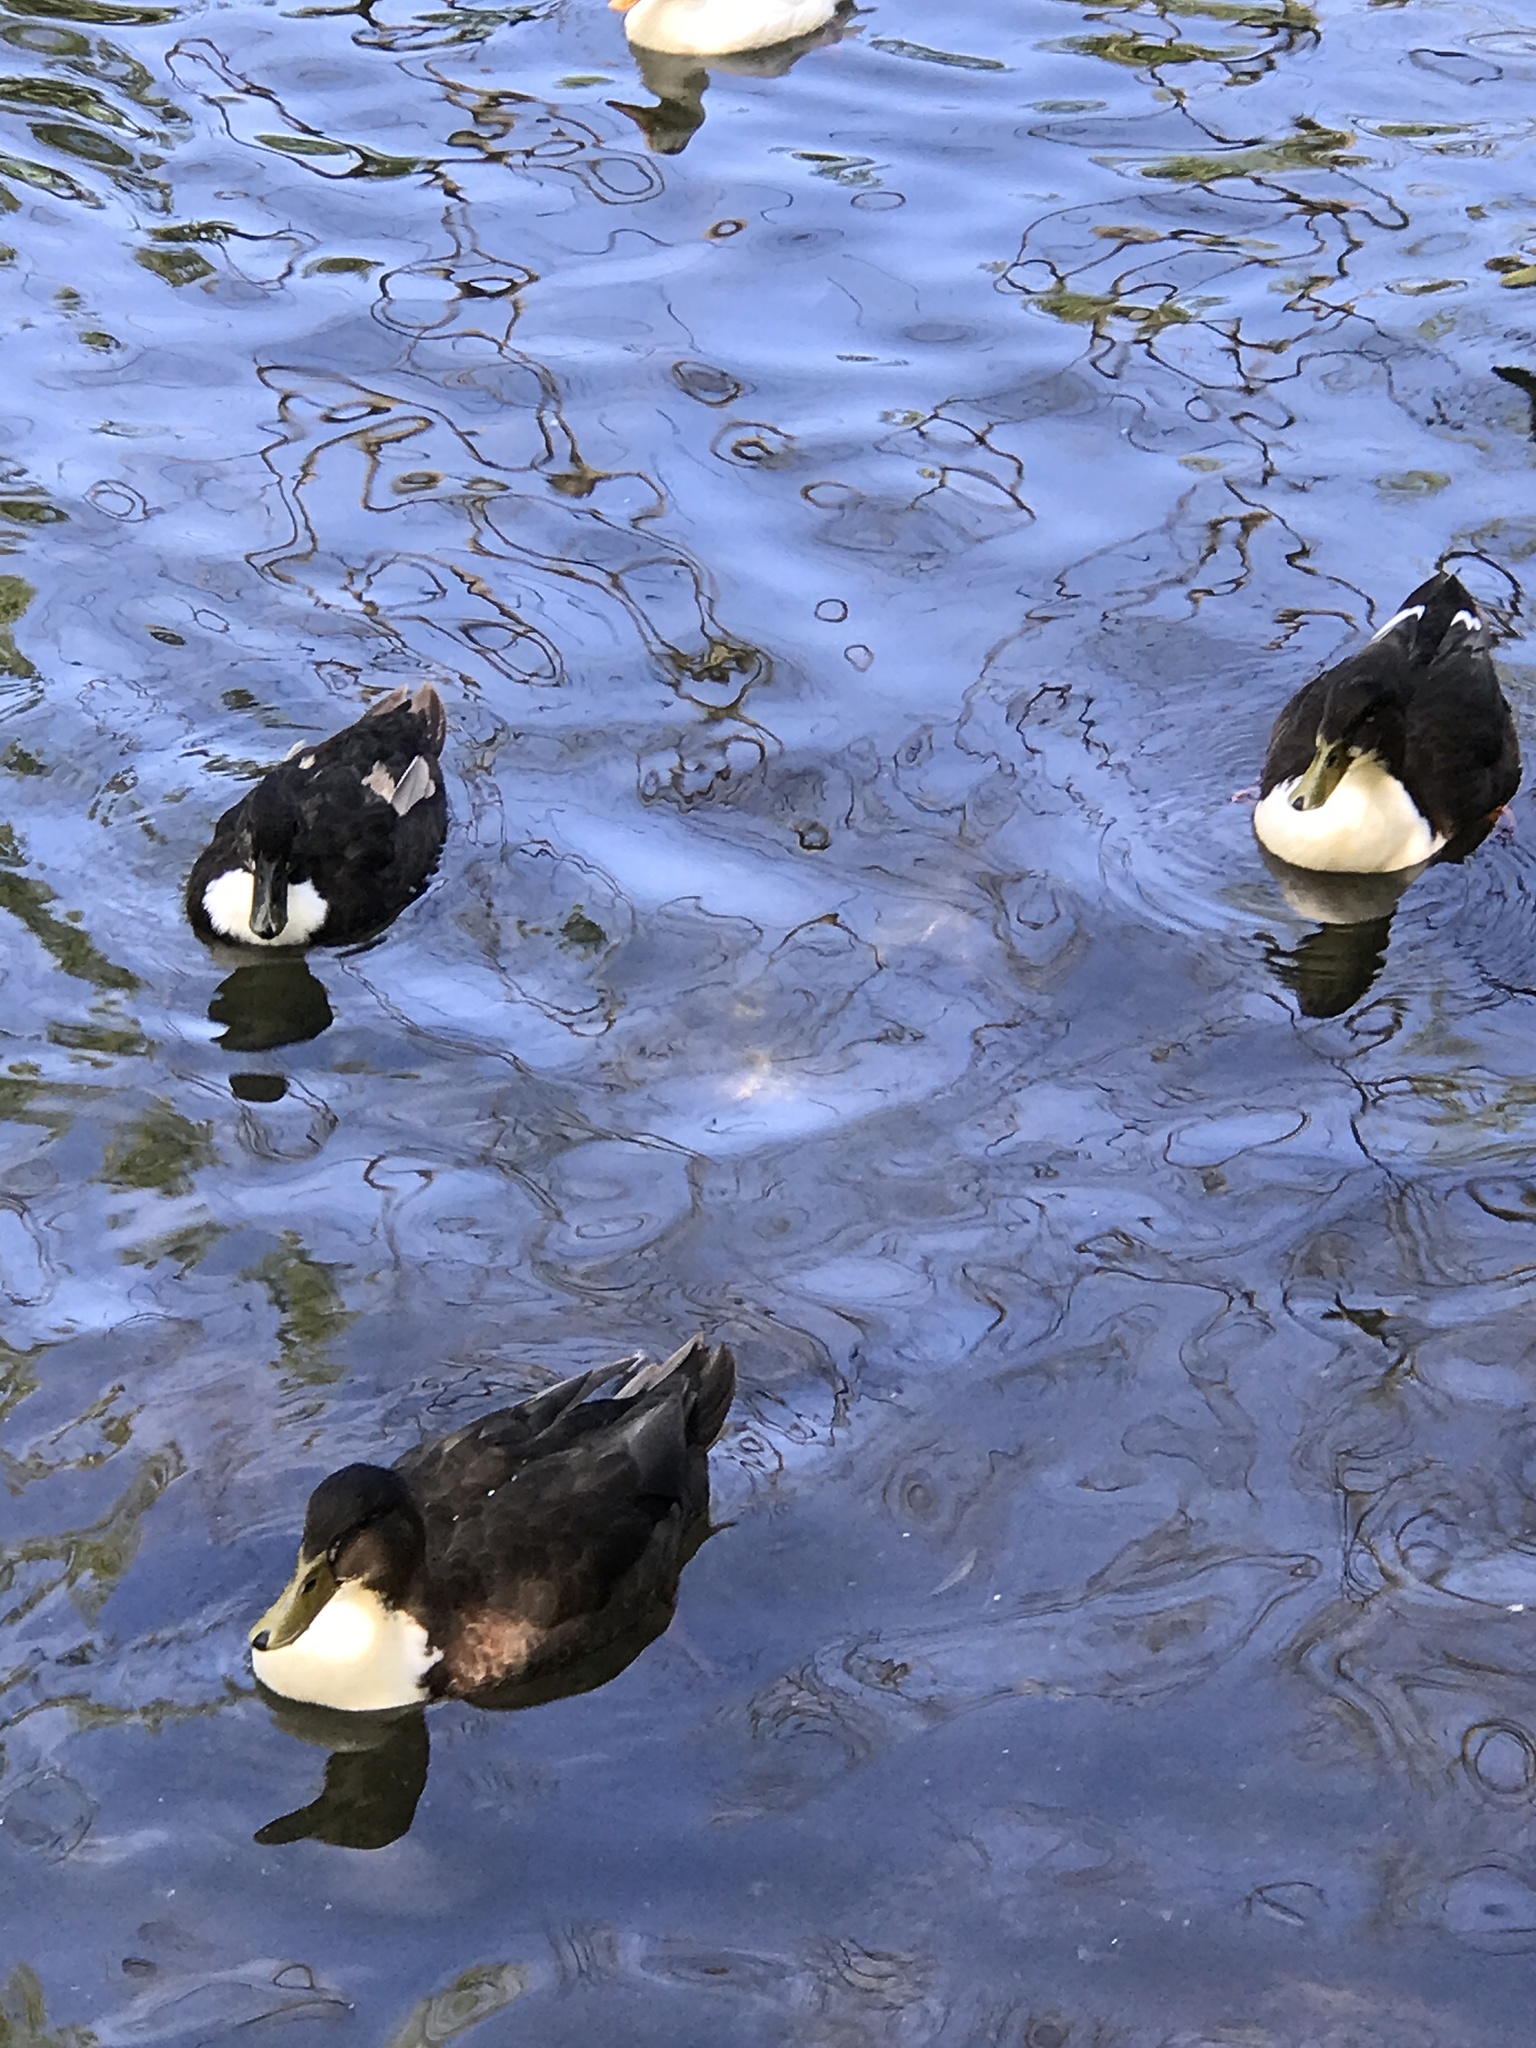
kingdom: Animalia
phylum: Chordata
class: Aves
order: Anseriformes
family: Anatidae
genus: Anas
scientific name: Anas platyrhynchos
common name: Mallard
